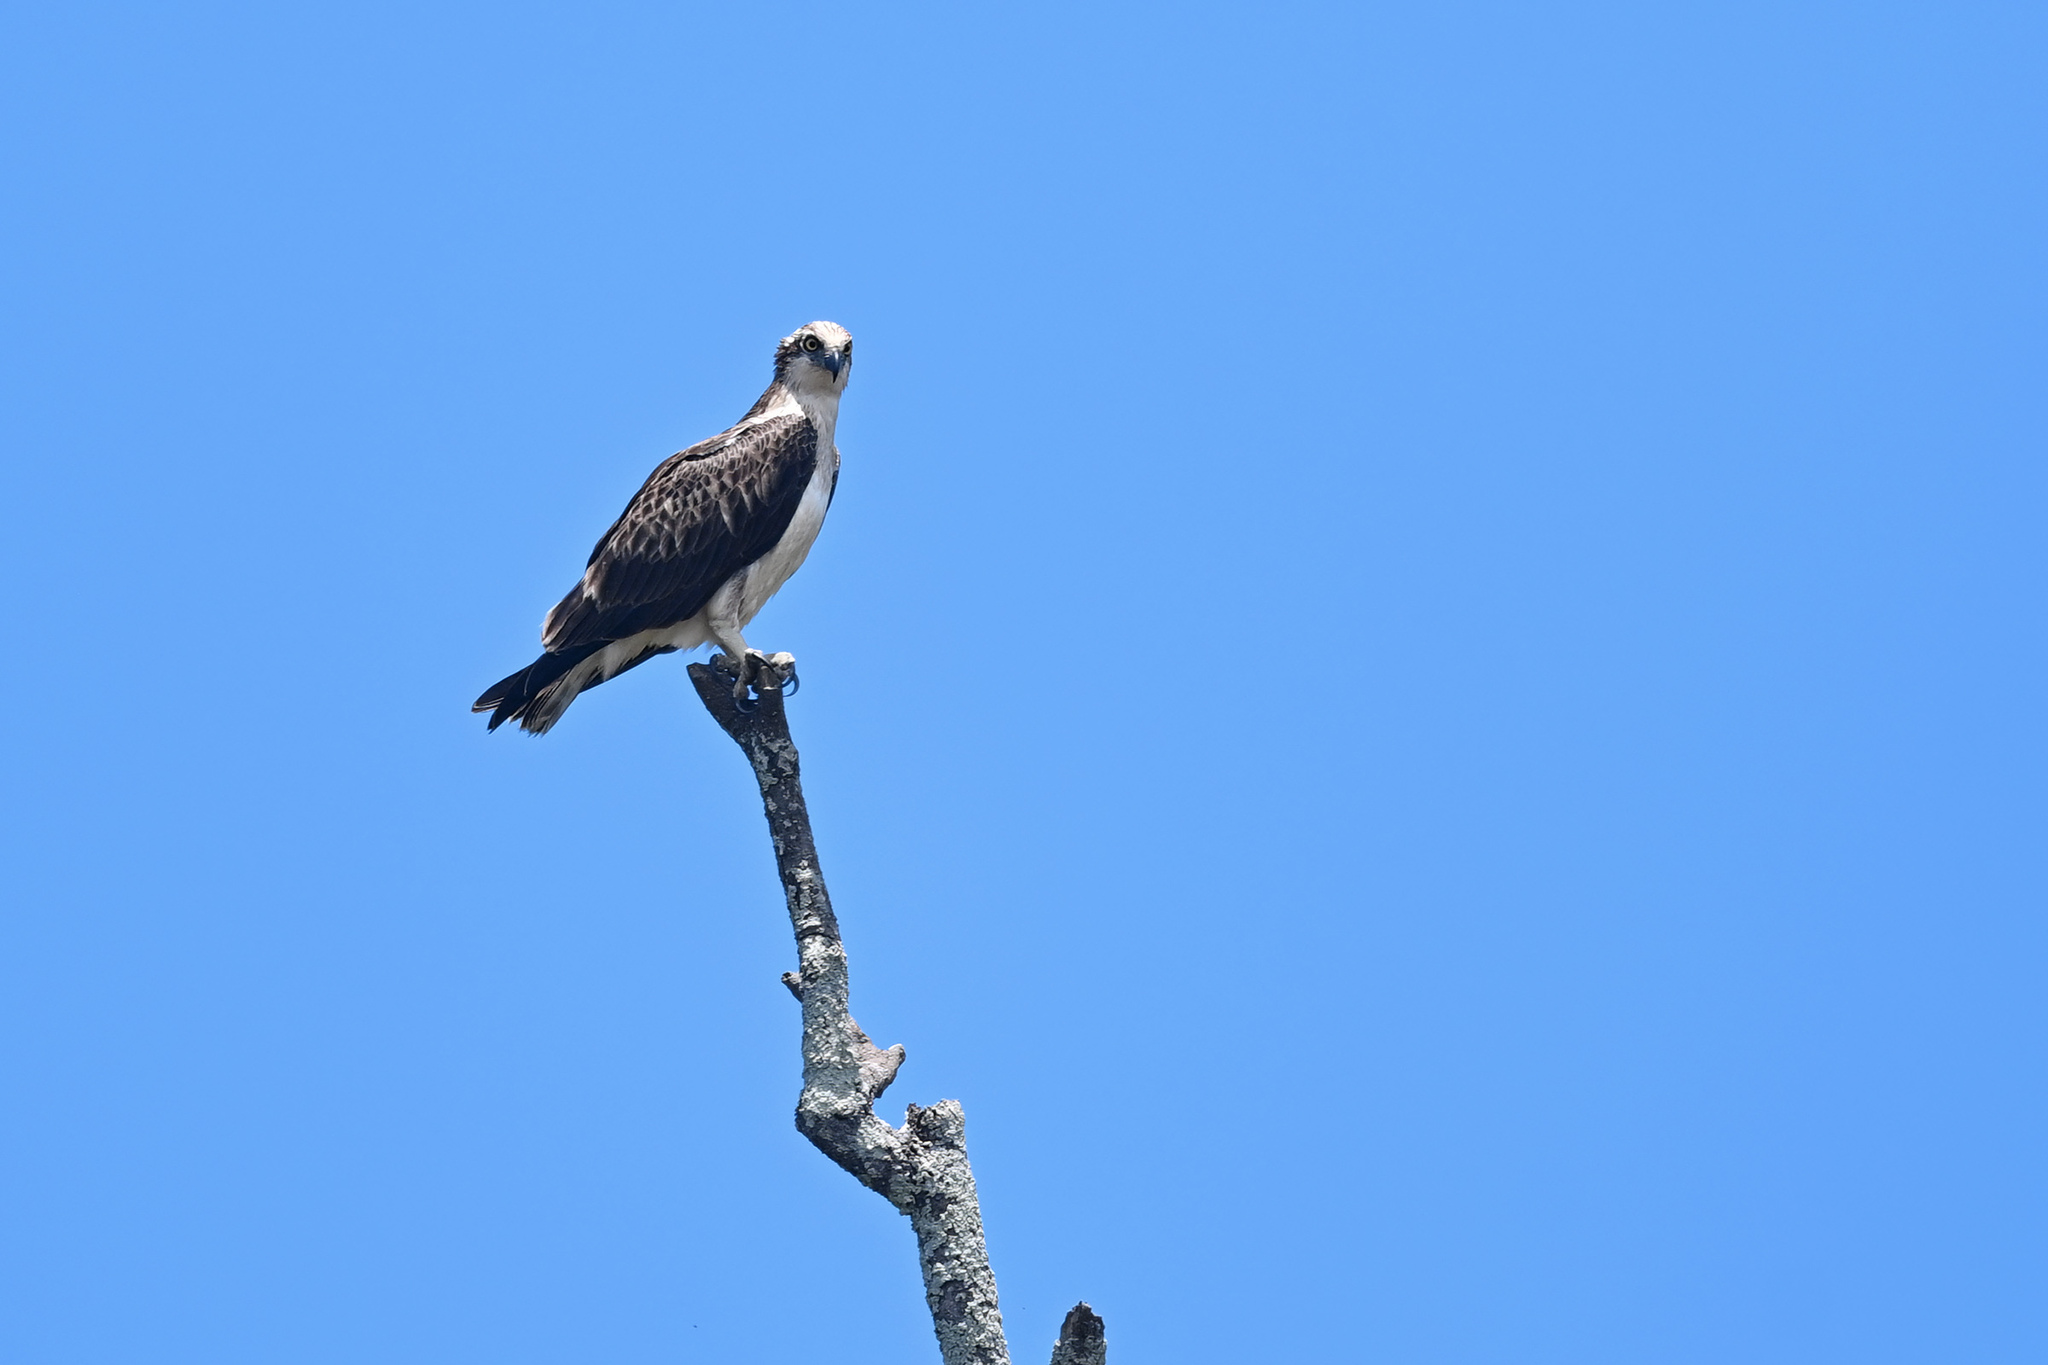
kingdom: Animalia
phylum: Chordata
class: Aves
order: Accipitriformes
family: Pandionidae
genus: Pandion
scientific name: Pandion haliaetus
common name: Osprey
